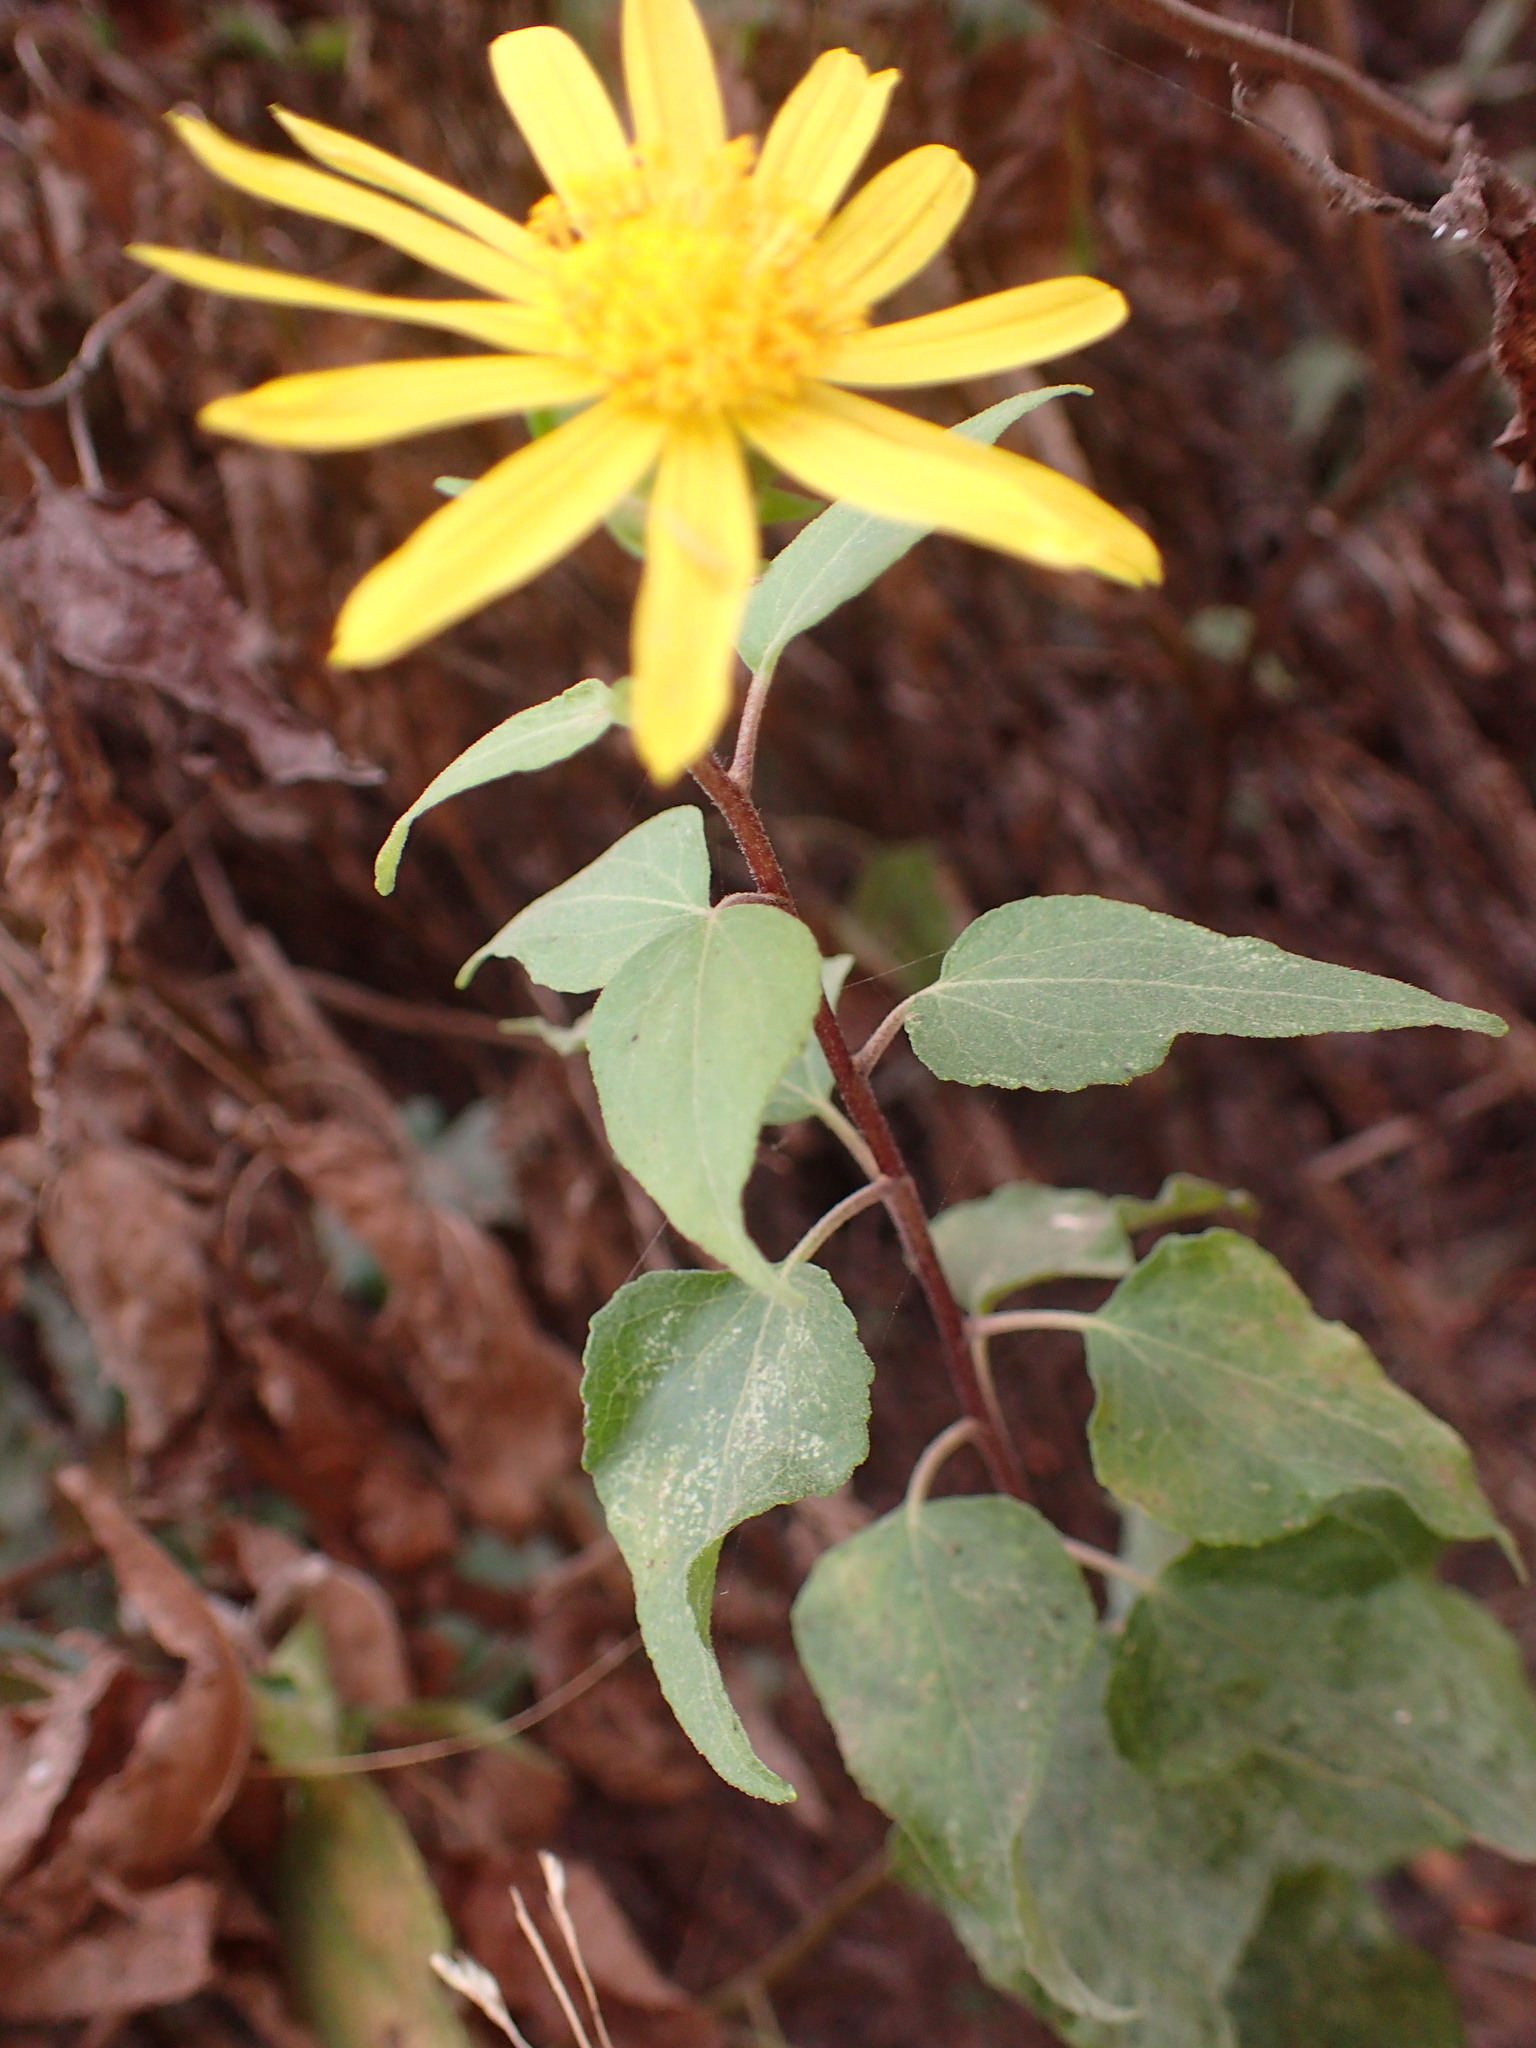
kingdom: Plantae
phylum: Tracheophyta
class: Magnoliopsida
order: Asterales
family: Asteraceae
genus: Venegasia
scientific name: Venegasia carpesioides
